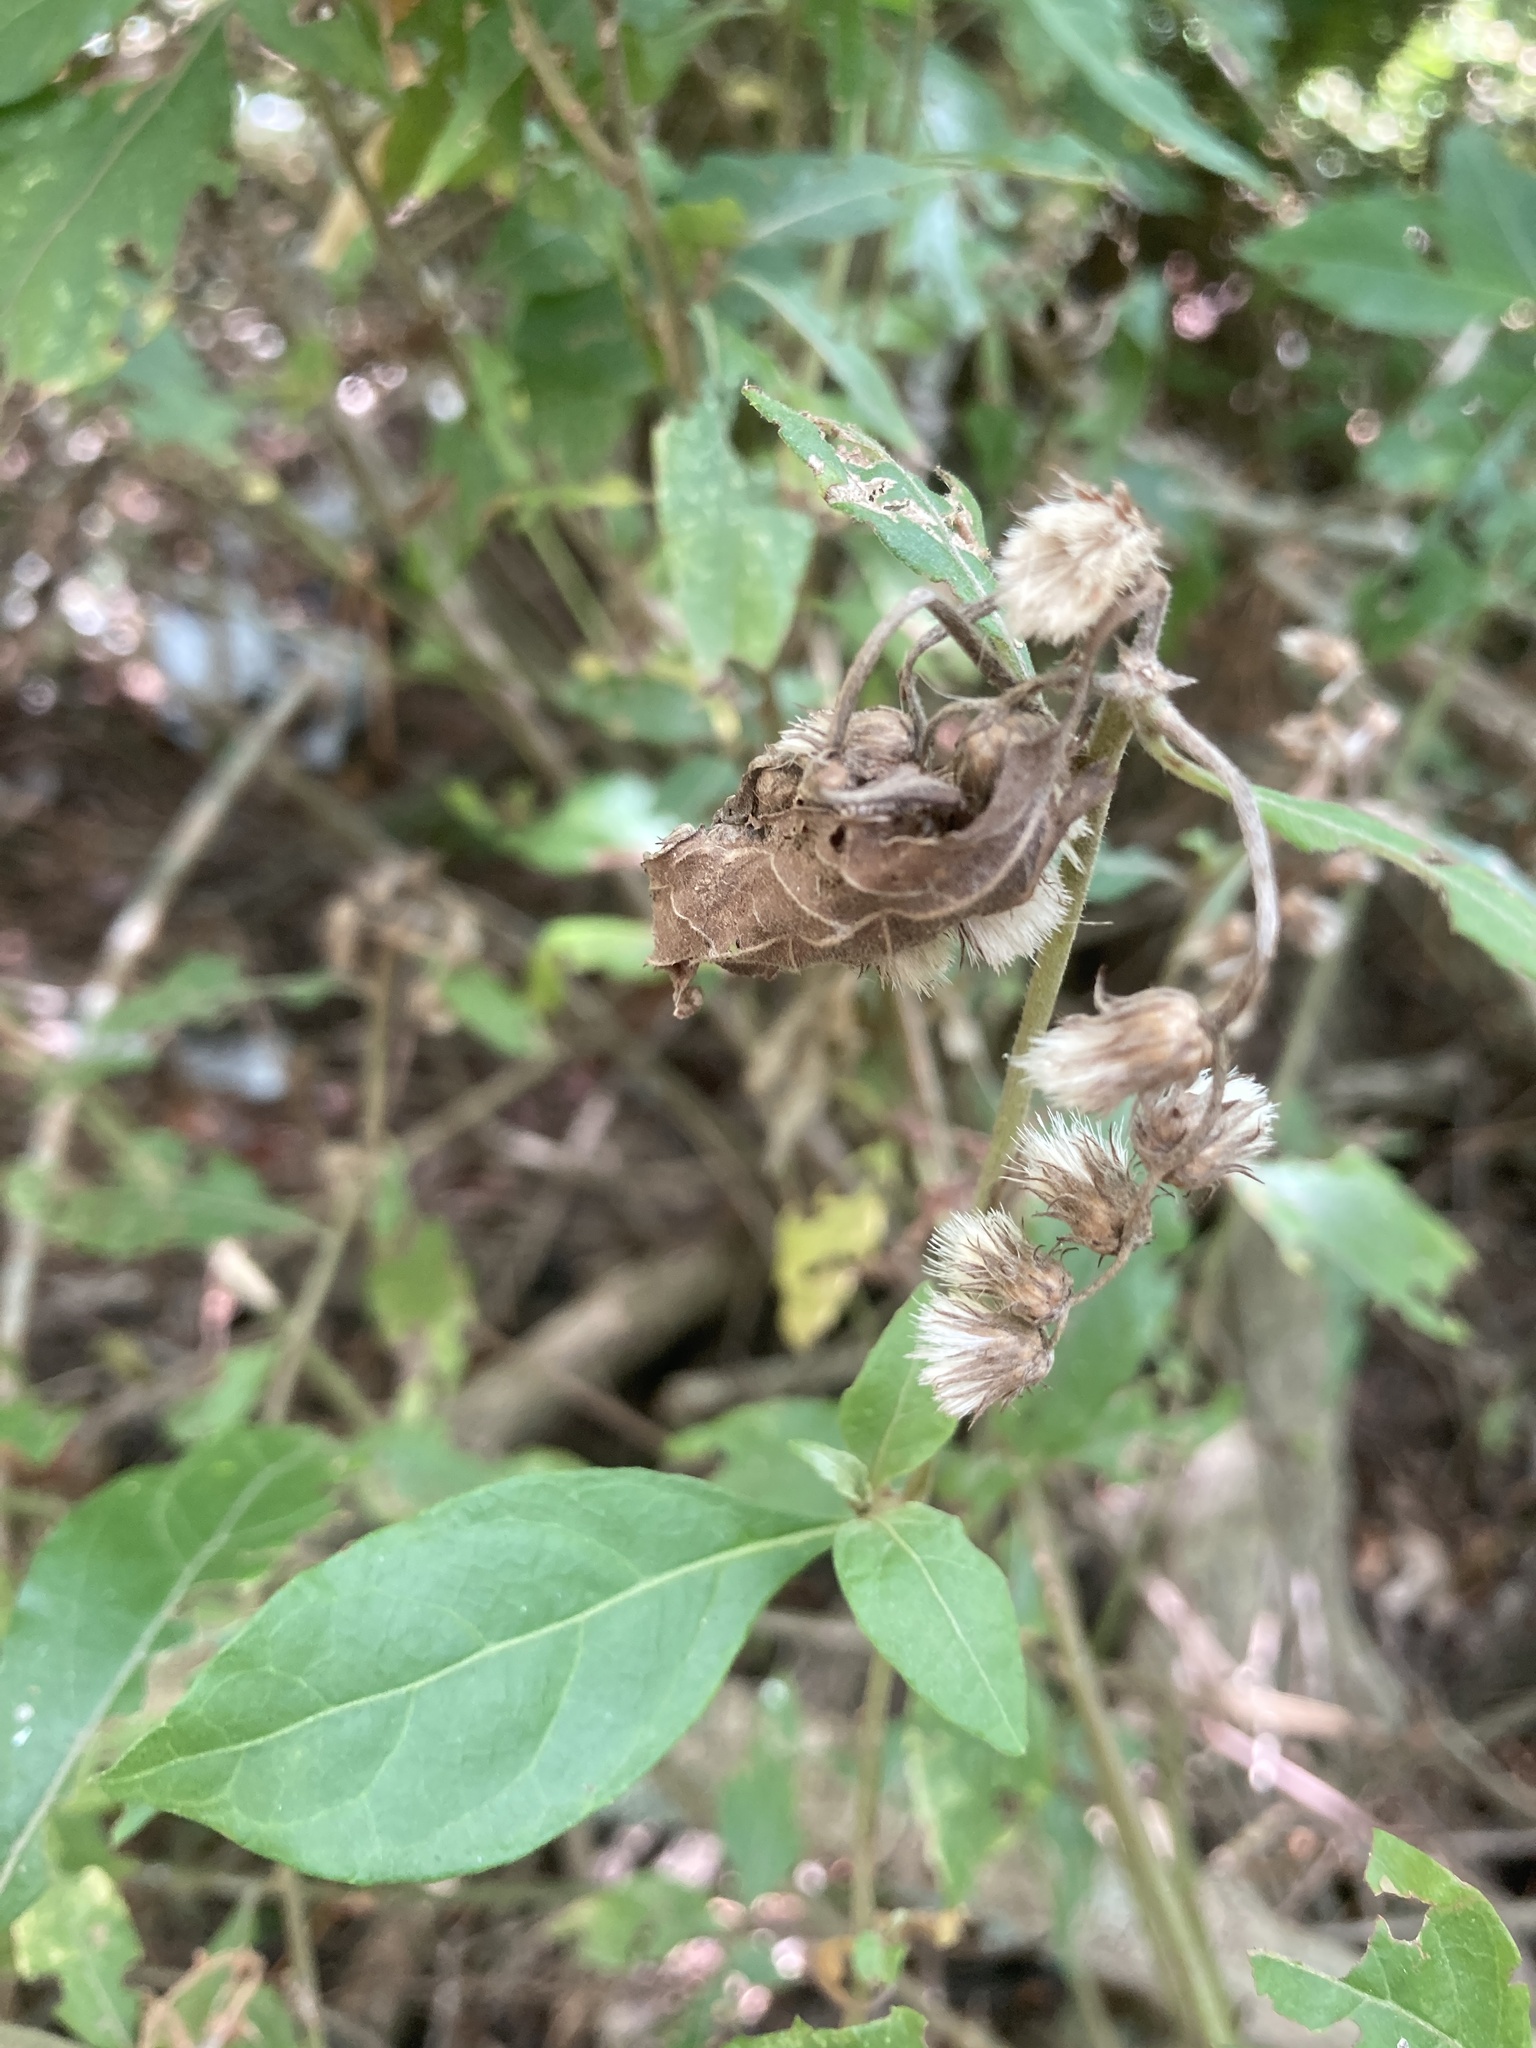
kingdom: Plantae
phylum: Tracheophyta
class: Magnoliopsida
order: Asterales
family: Asteraceae
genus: Cyrtocymura
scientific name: Cyrtocymura scorpioides
